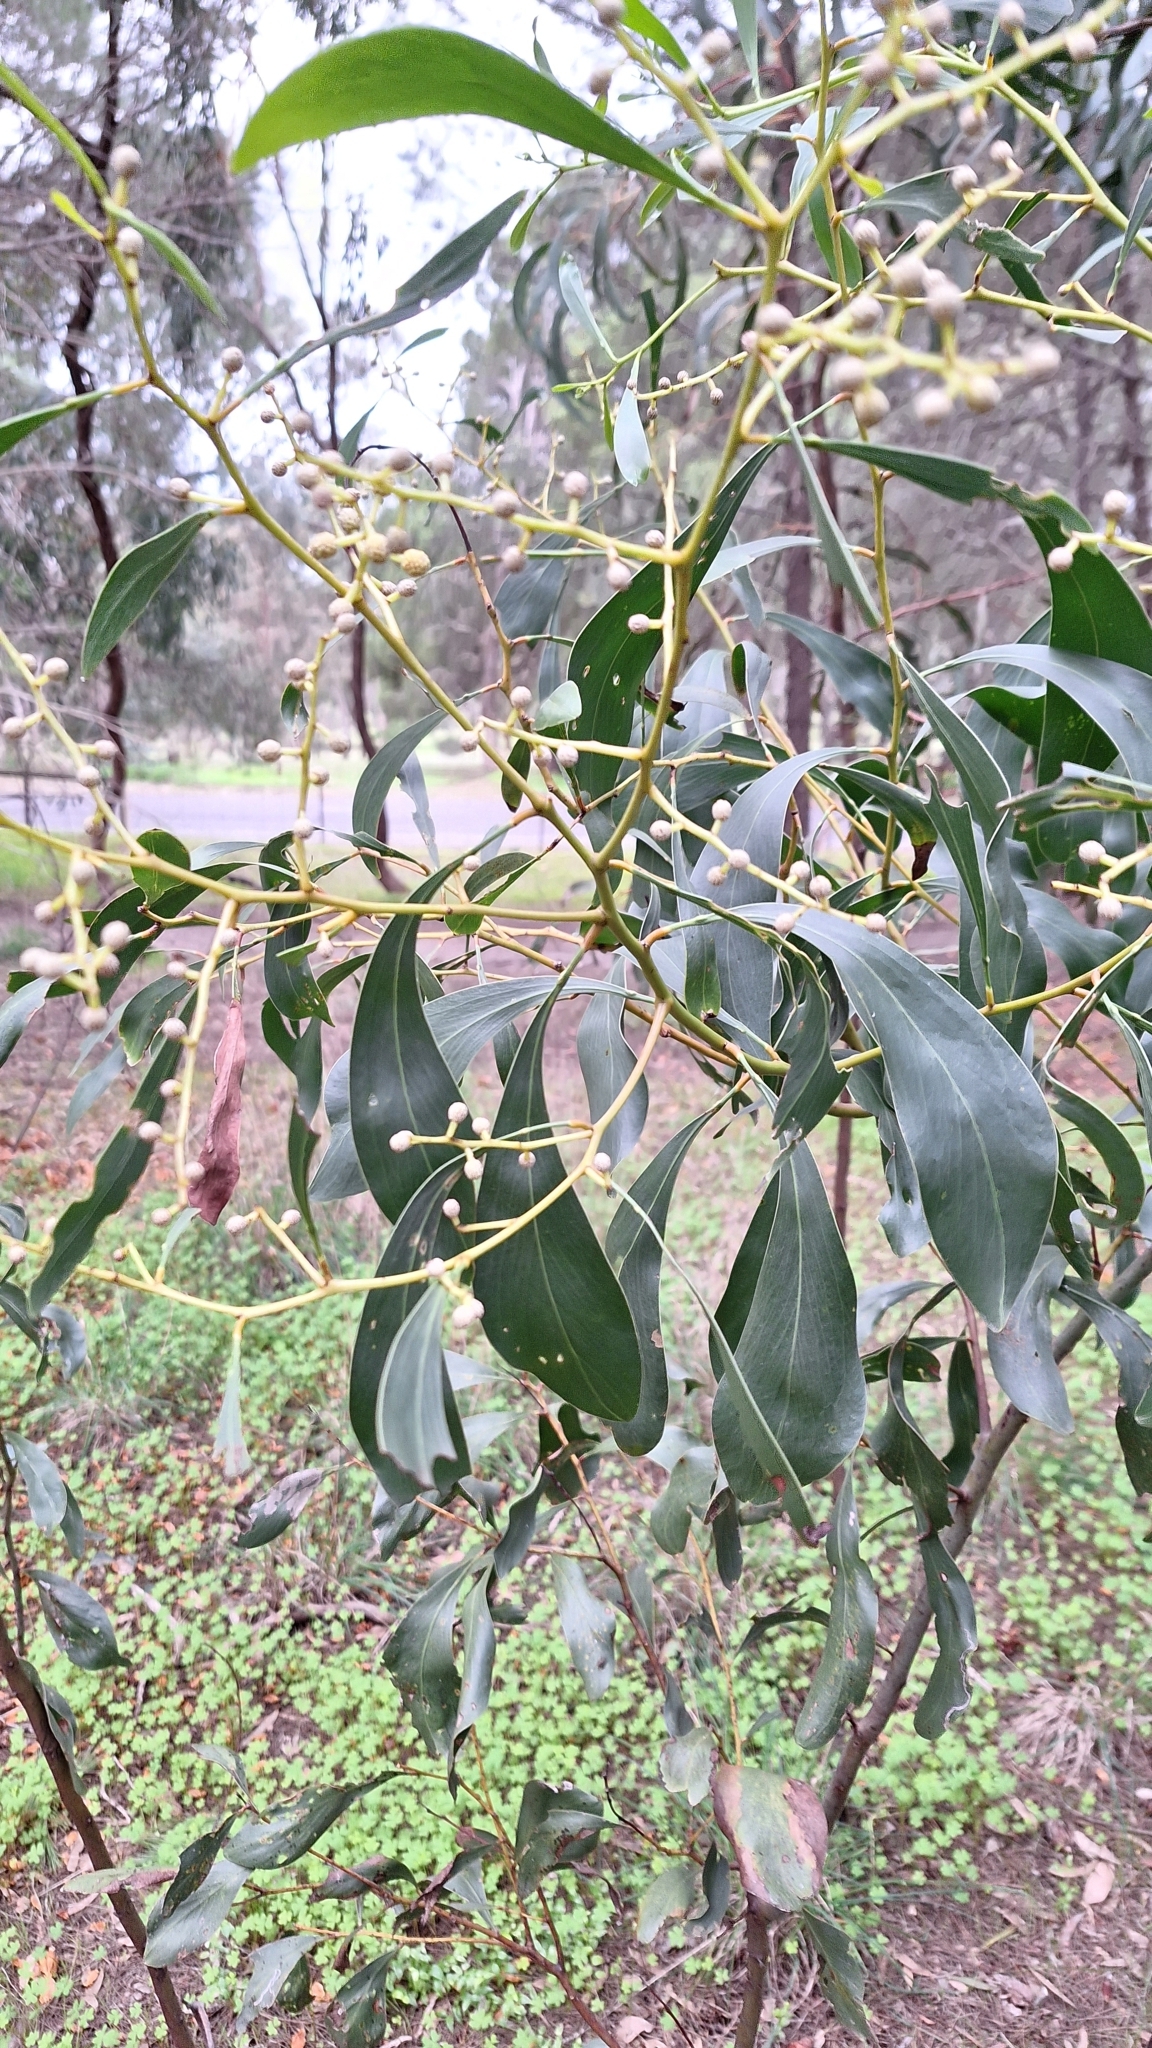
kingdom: Plantae
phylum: Tracheophyta
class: Magnoliopsida
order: Fabales
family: Fabaceae
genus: Acacia
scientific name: Acacia pycnantha
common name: Golden wattle
